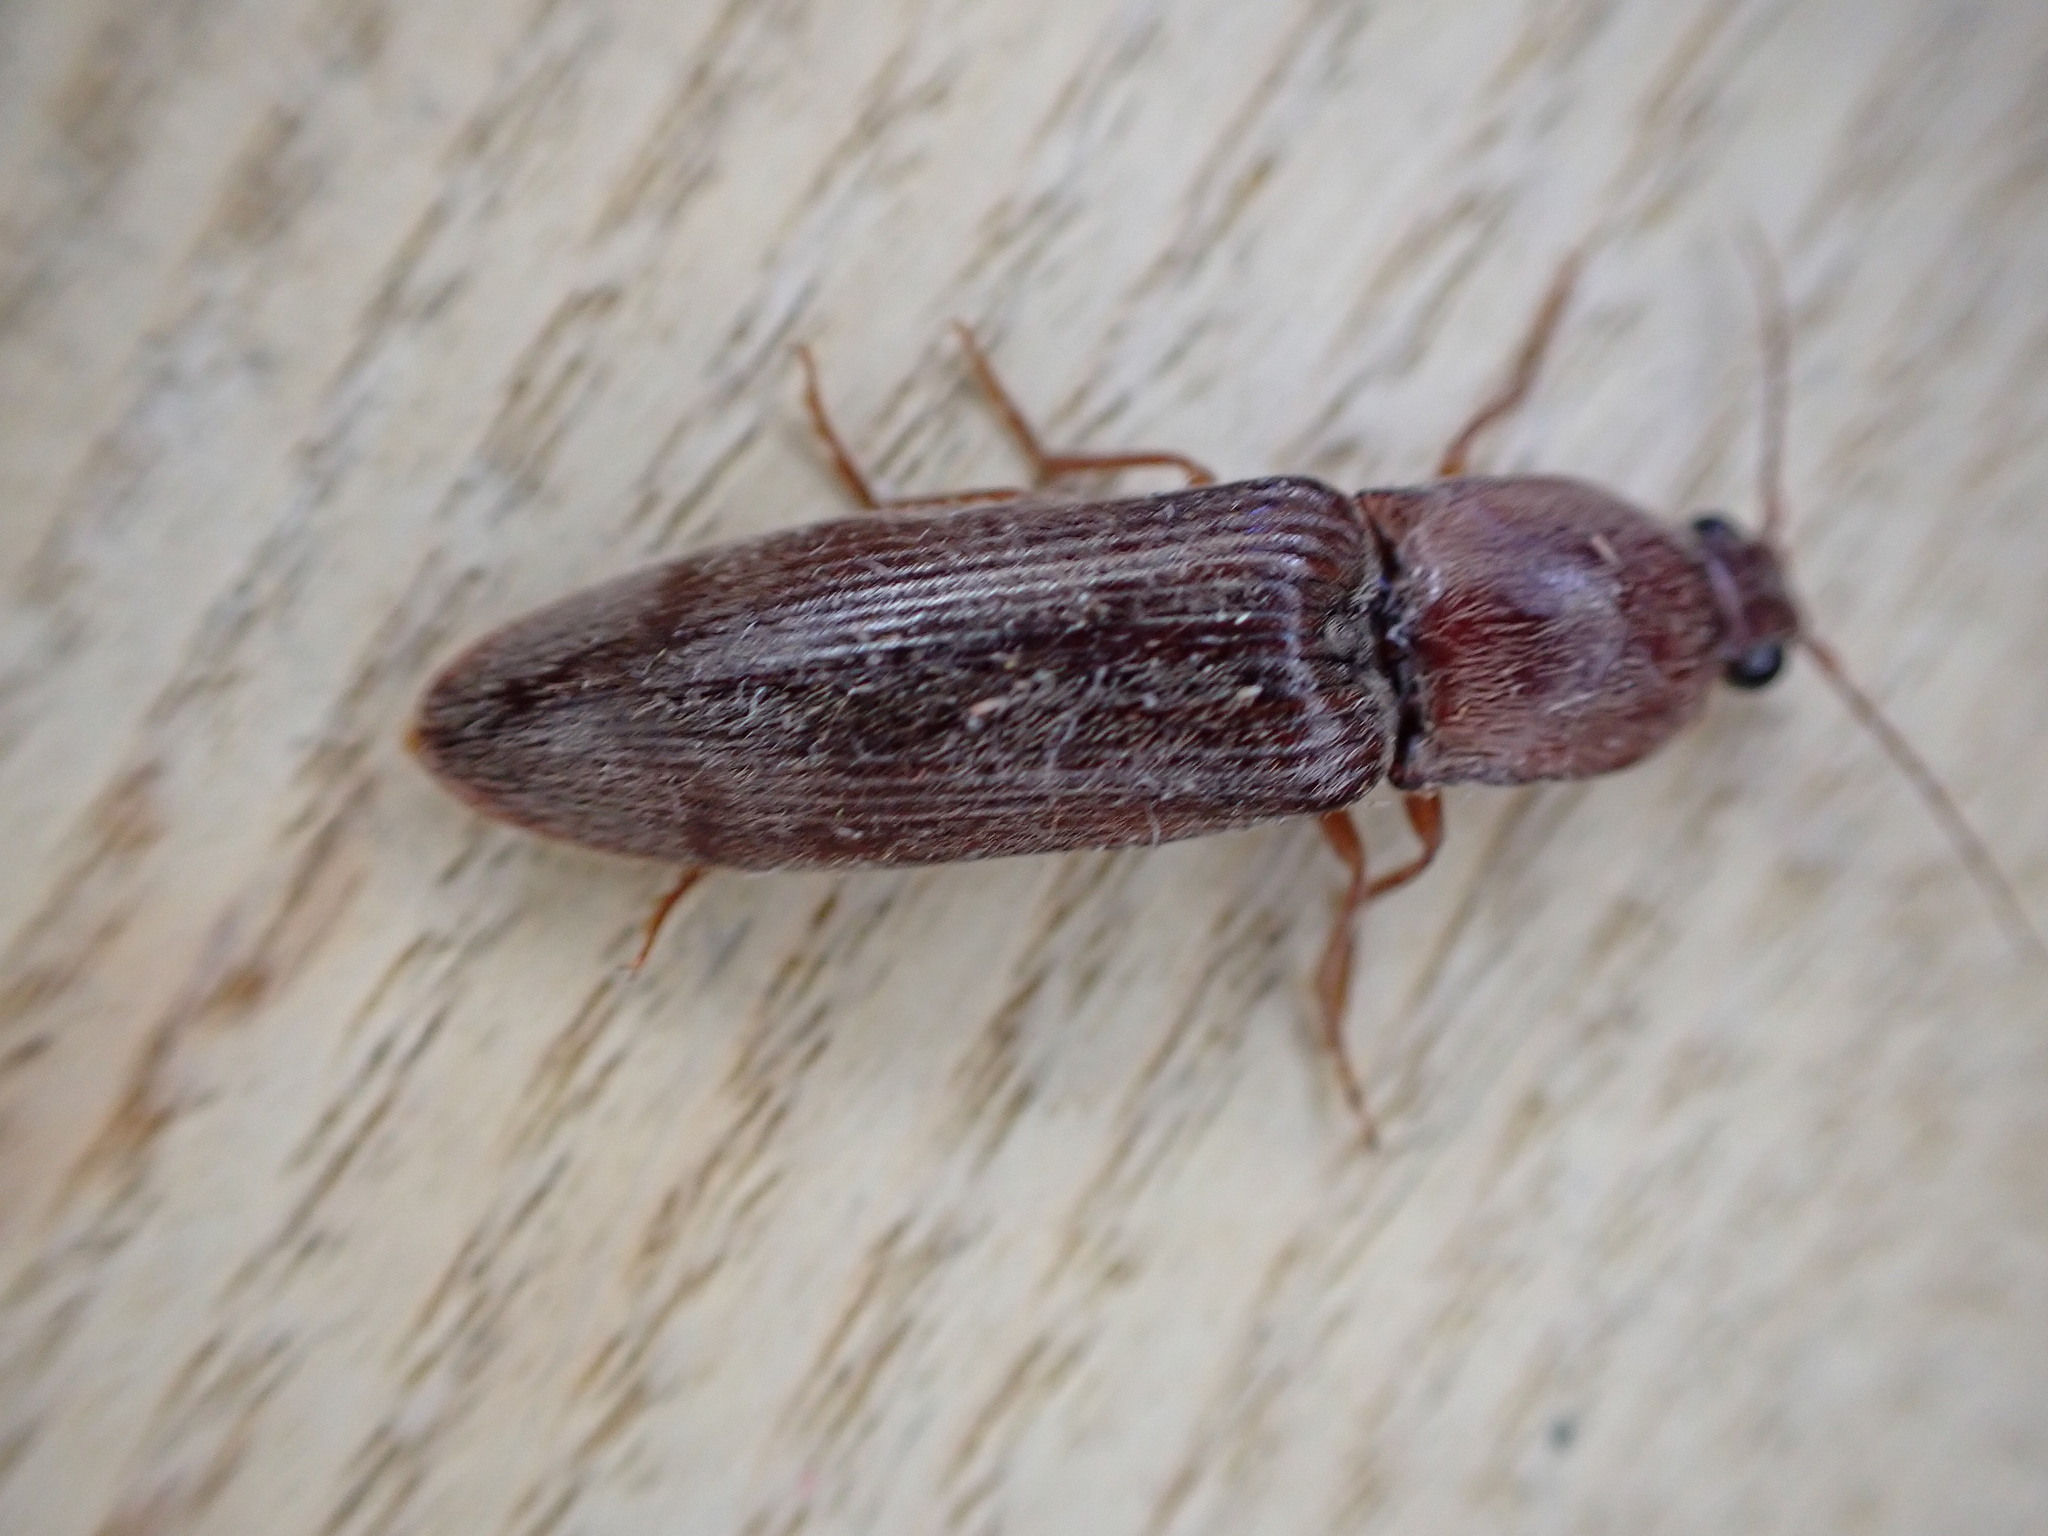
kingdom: Animalia
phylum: Arthropoda
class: Insecta
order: Coleoptera
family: Elateridae
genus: Stenagostus
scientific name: Stenagostus rhombeus
